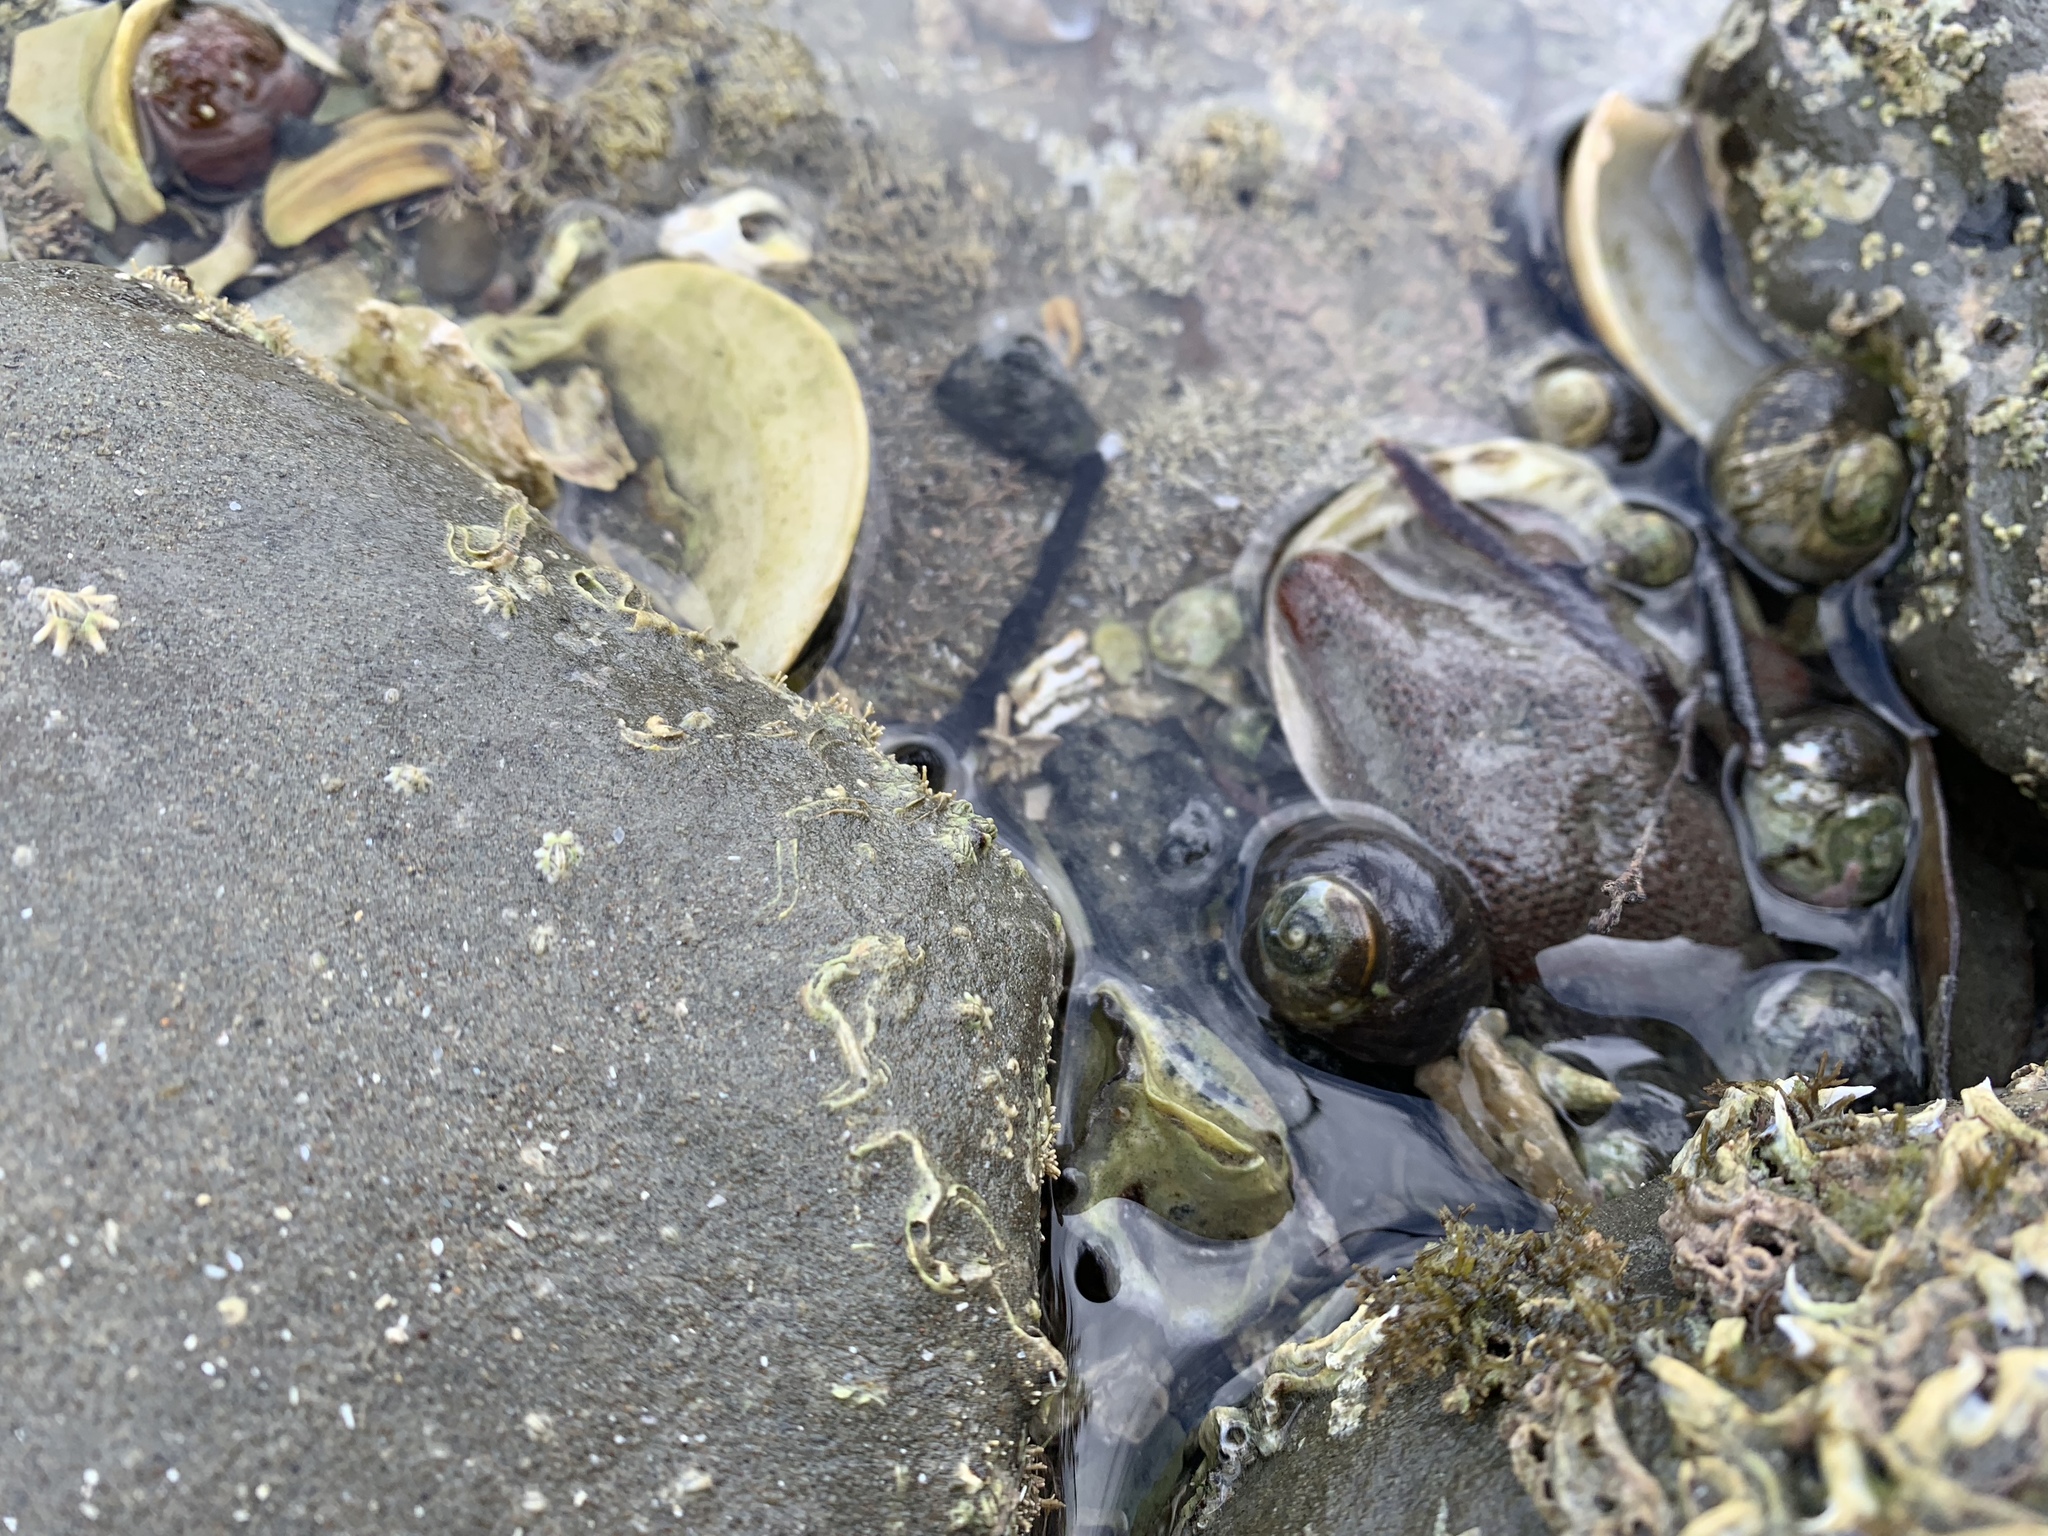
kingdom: Animalia
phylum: Annelida
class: Polychaeta
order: Sabellida
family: Serpulidae
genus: Spirobranchus
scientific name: Spirobranchus cariniferus
